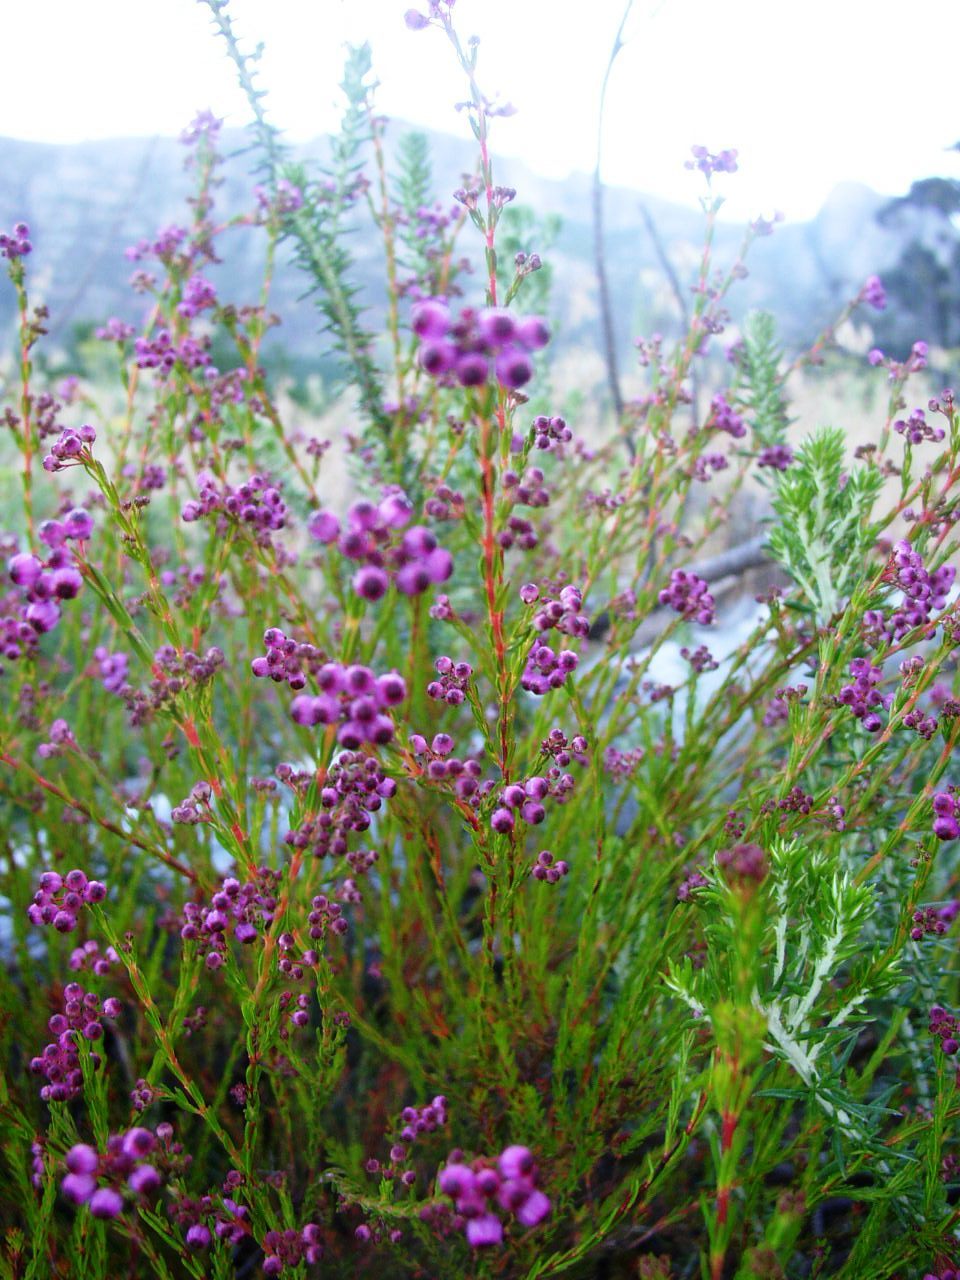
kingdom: Plantae
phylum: Tracheophyta
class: Magnoliopsida
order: Ericales
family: Ericaceae
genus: Erica
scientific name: Erica multumbellifera
